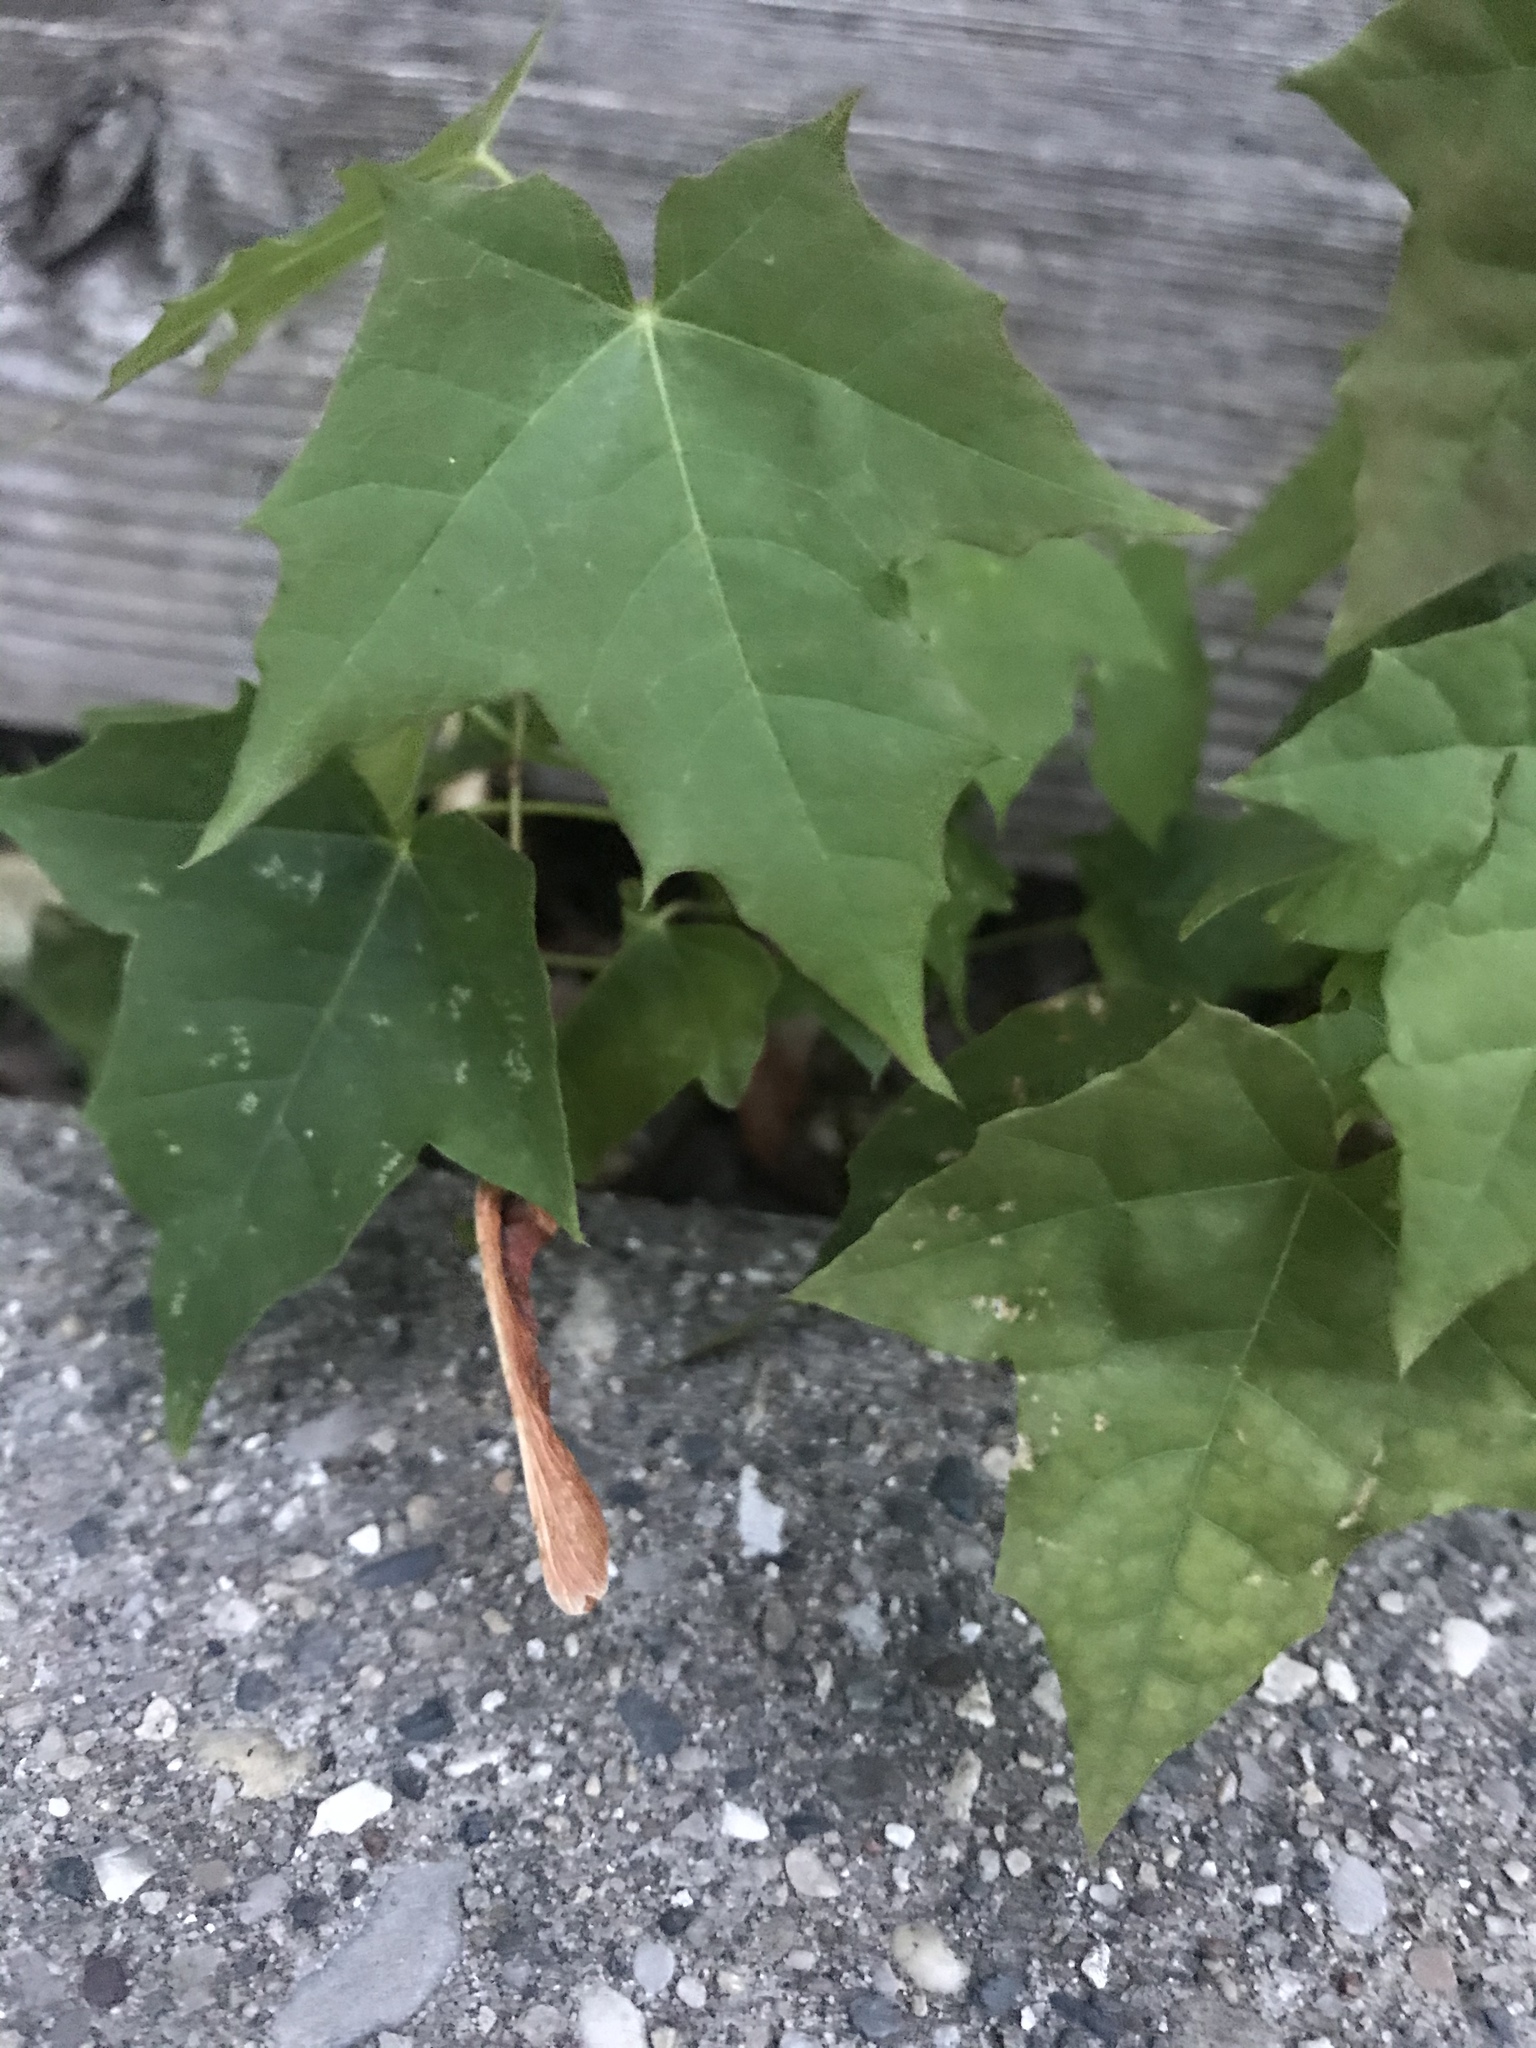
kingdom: Plantae
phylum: Tracheophyta
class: Magnoliopsida
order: Sapindales
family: Sapindaceae
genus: Acer
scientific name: Acer platanoides
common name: Norway maple
